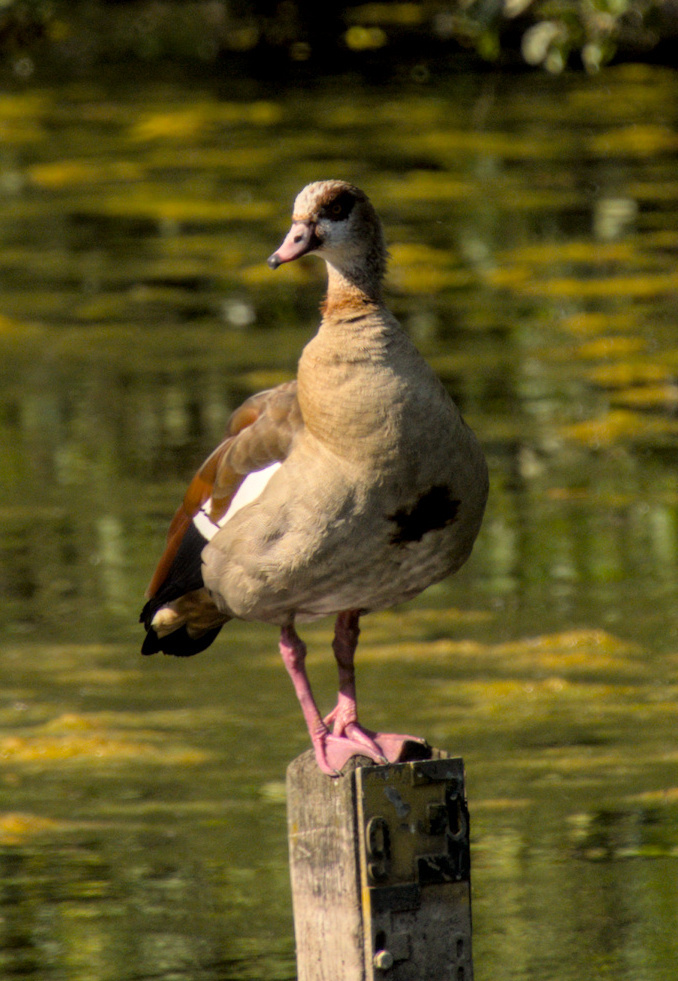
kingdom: Animalia
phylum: Chordata
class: Aves
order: Anseriformes
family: Anatidae
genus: Alopochen
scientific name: Alopochen aegyptiaca
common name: Egyptian goose
